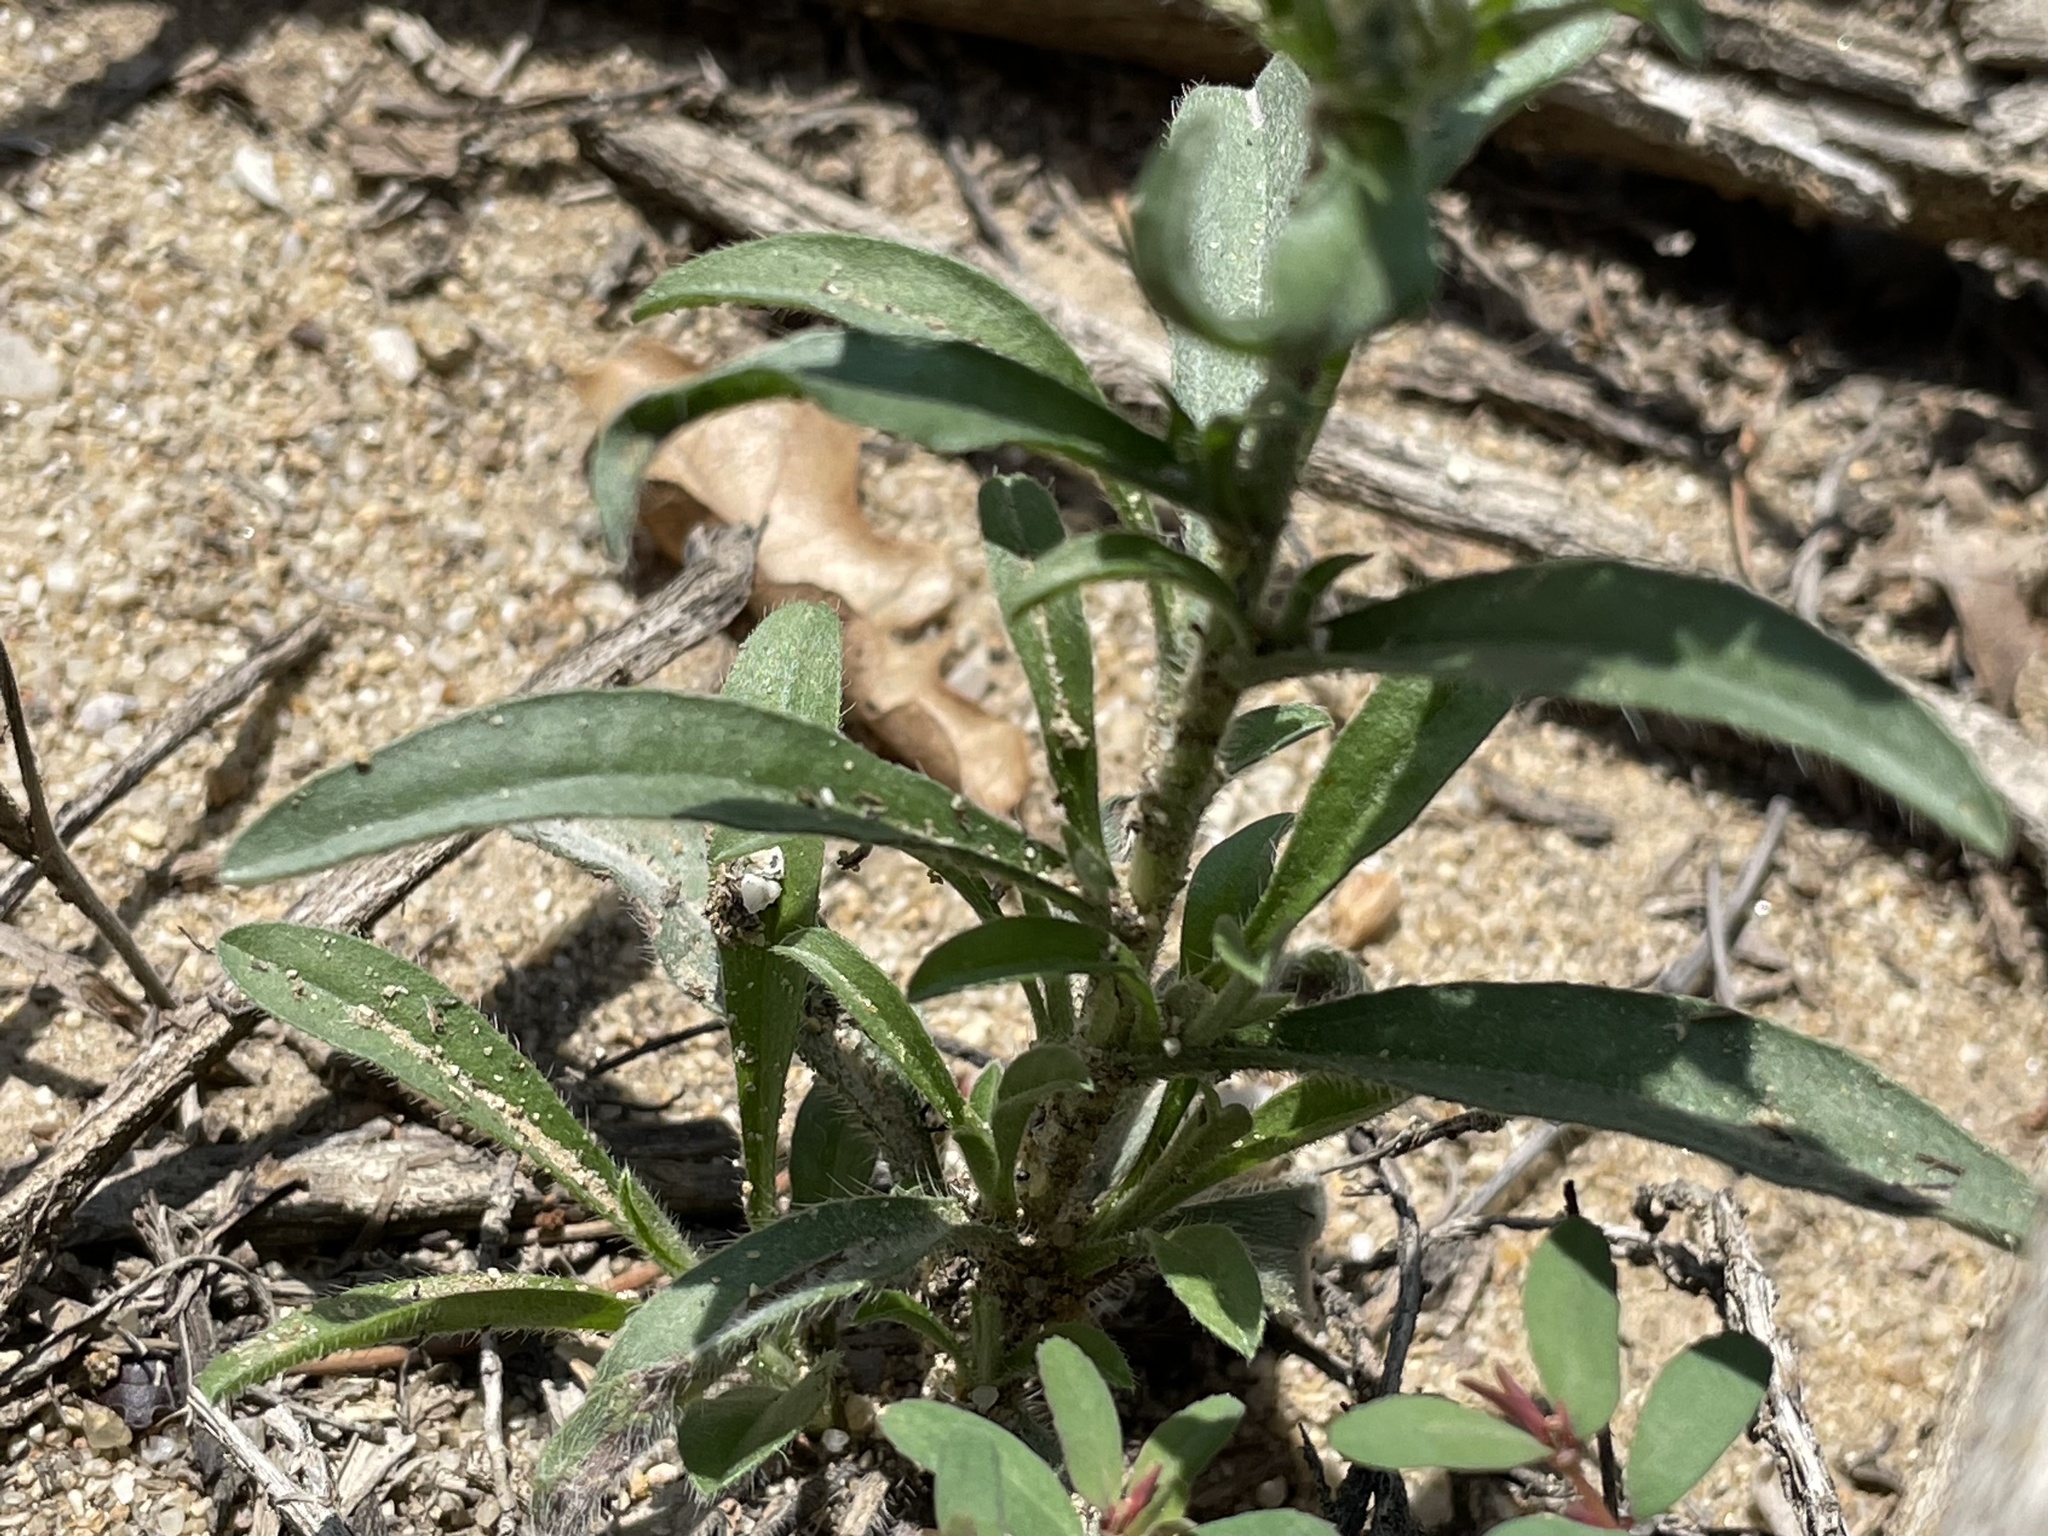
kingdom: Plantae
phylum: Tracheophyta
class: Magnoliopsida
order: Boraginales
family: Boraginaceae
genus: Oreocarya
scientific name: Oreocarya suffruticosa
